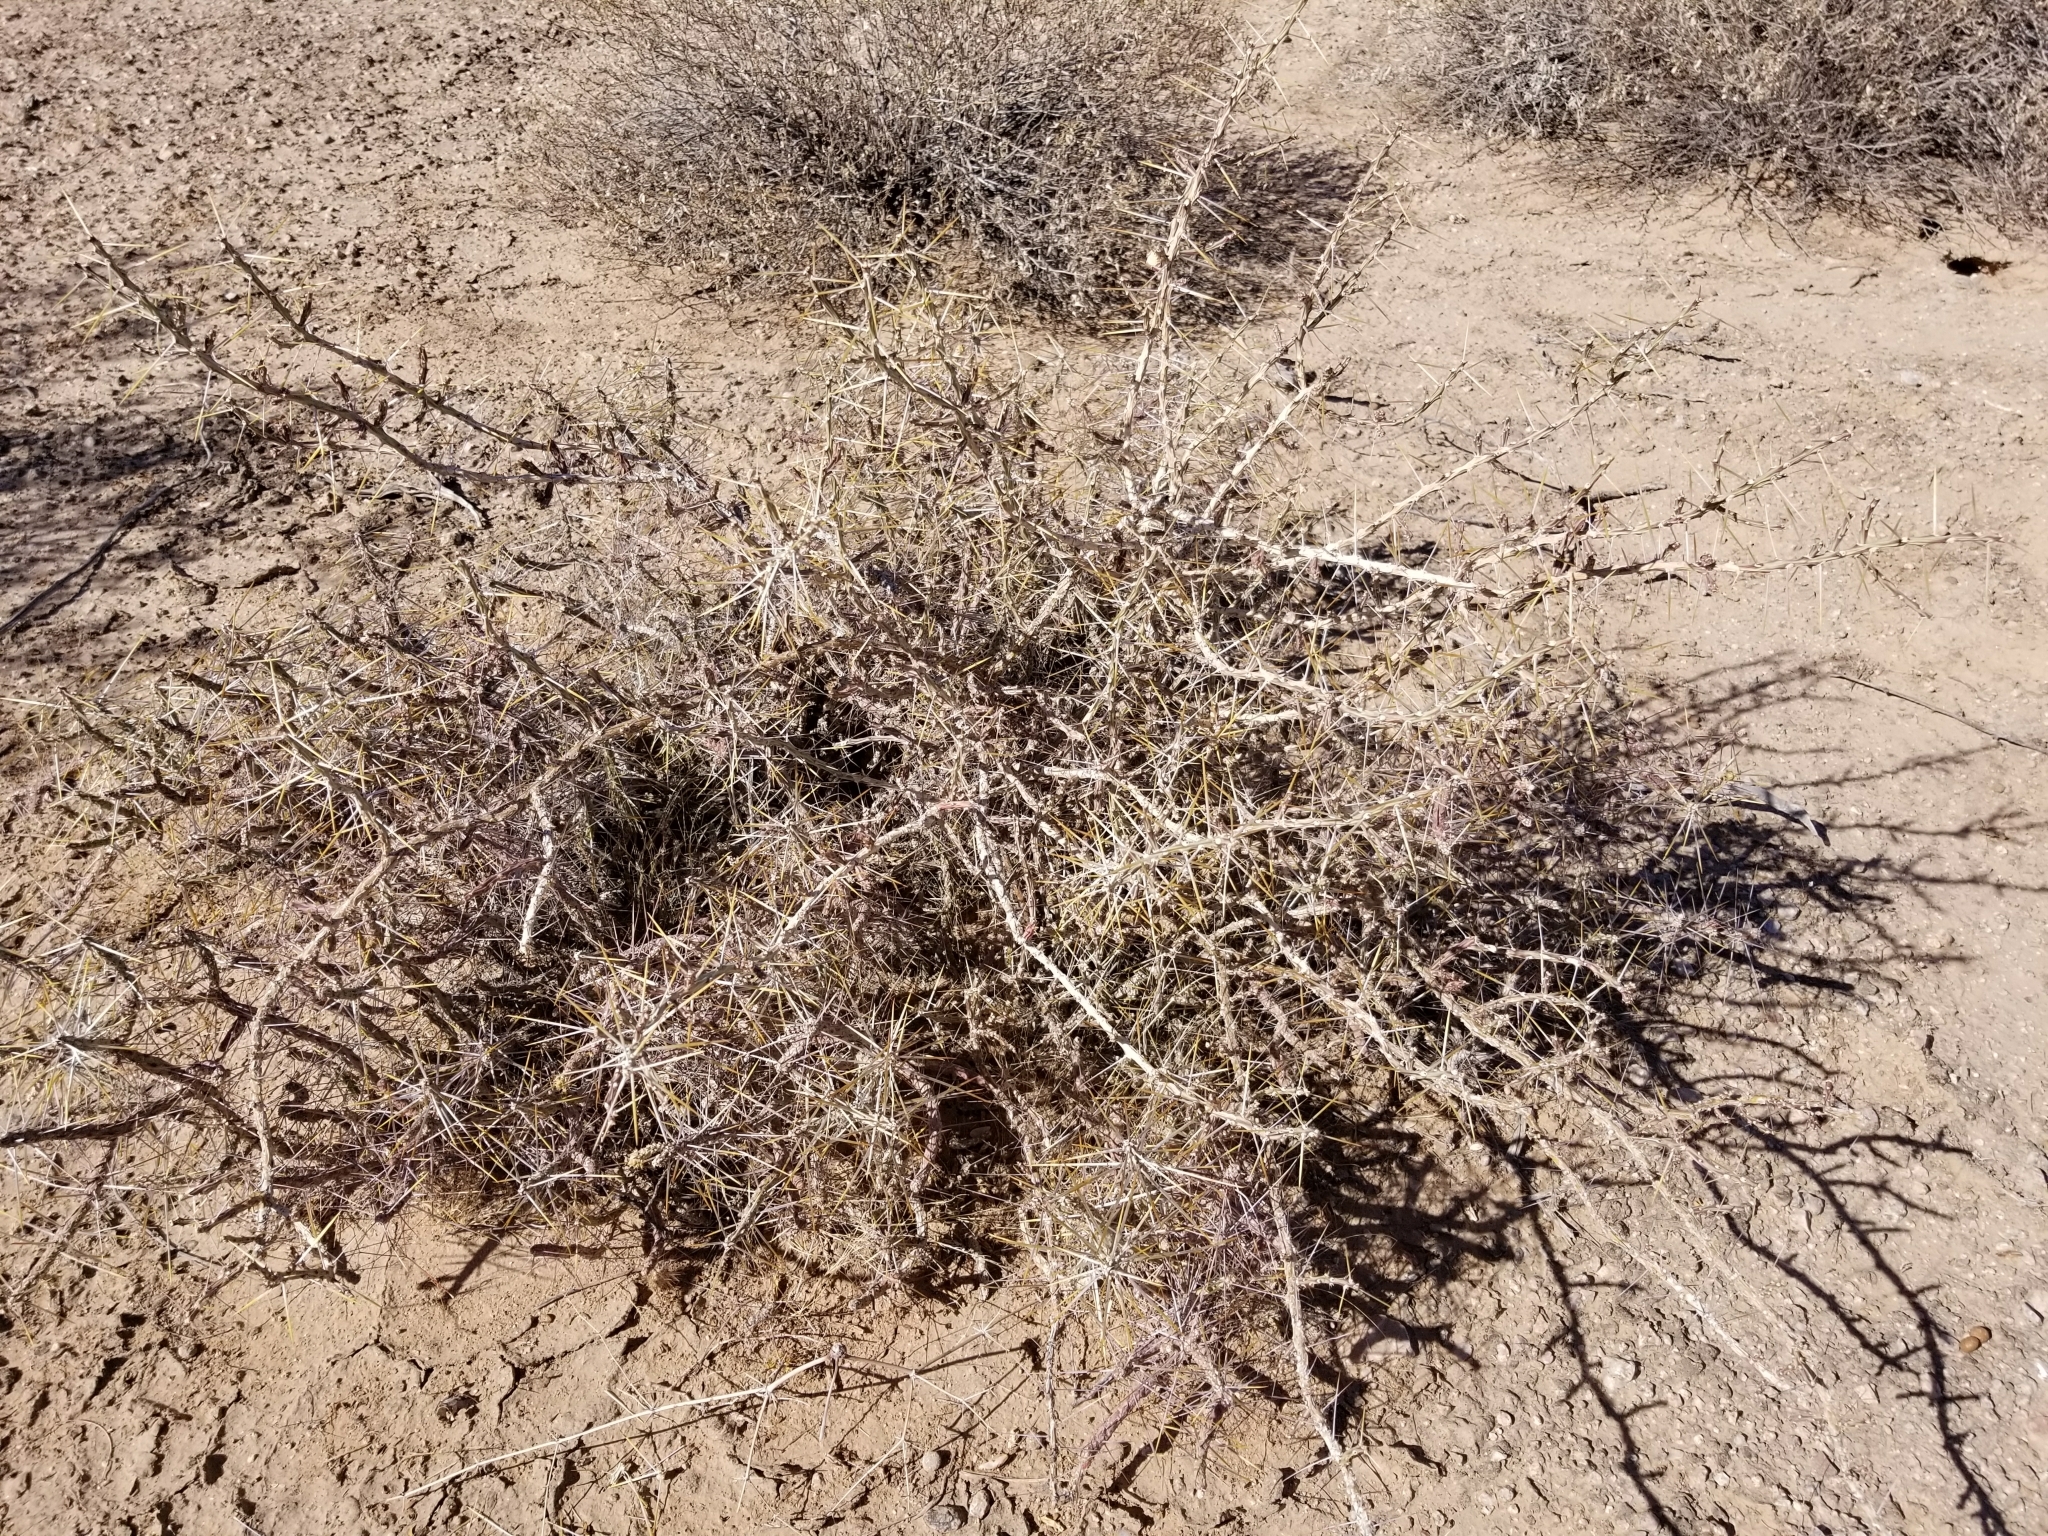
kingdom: Plantae
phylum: Tracheophyta
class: Magnoliopsida
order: Caryophyllales
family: Cactaceae
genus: Cylindropuntia
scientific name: Cylindropuntia leptocaulis
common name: Christmas cactus
